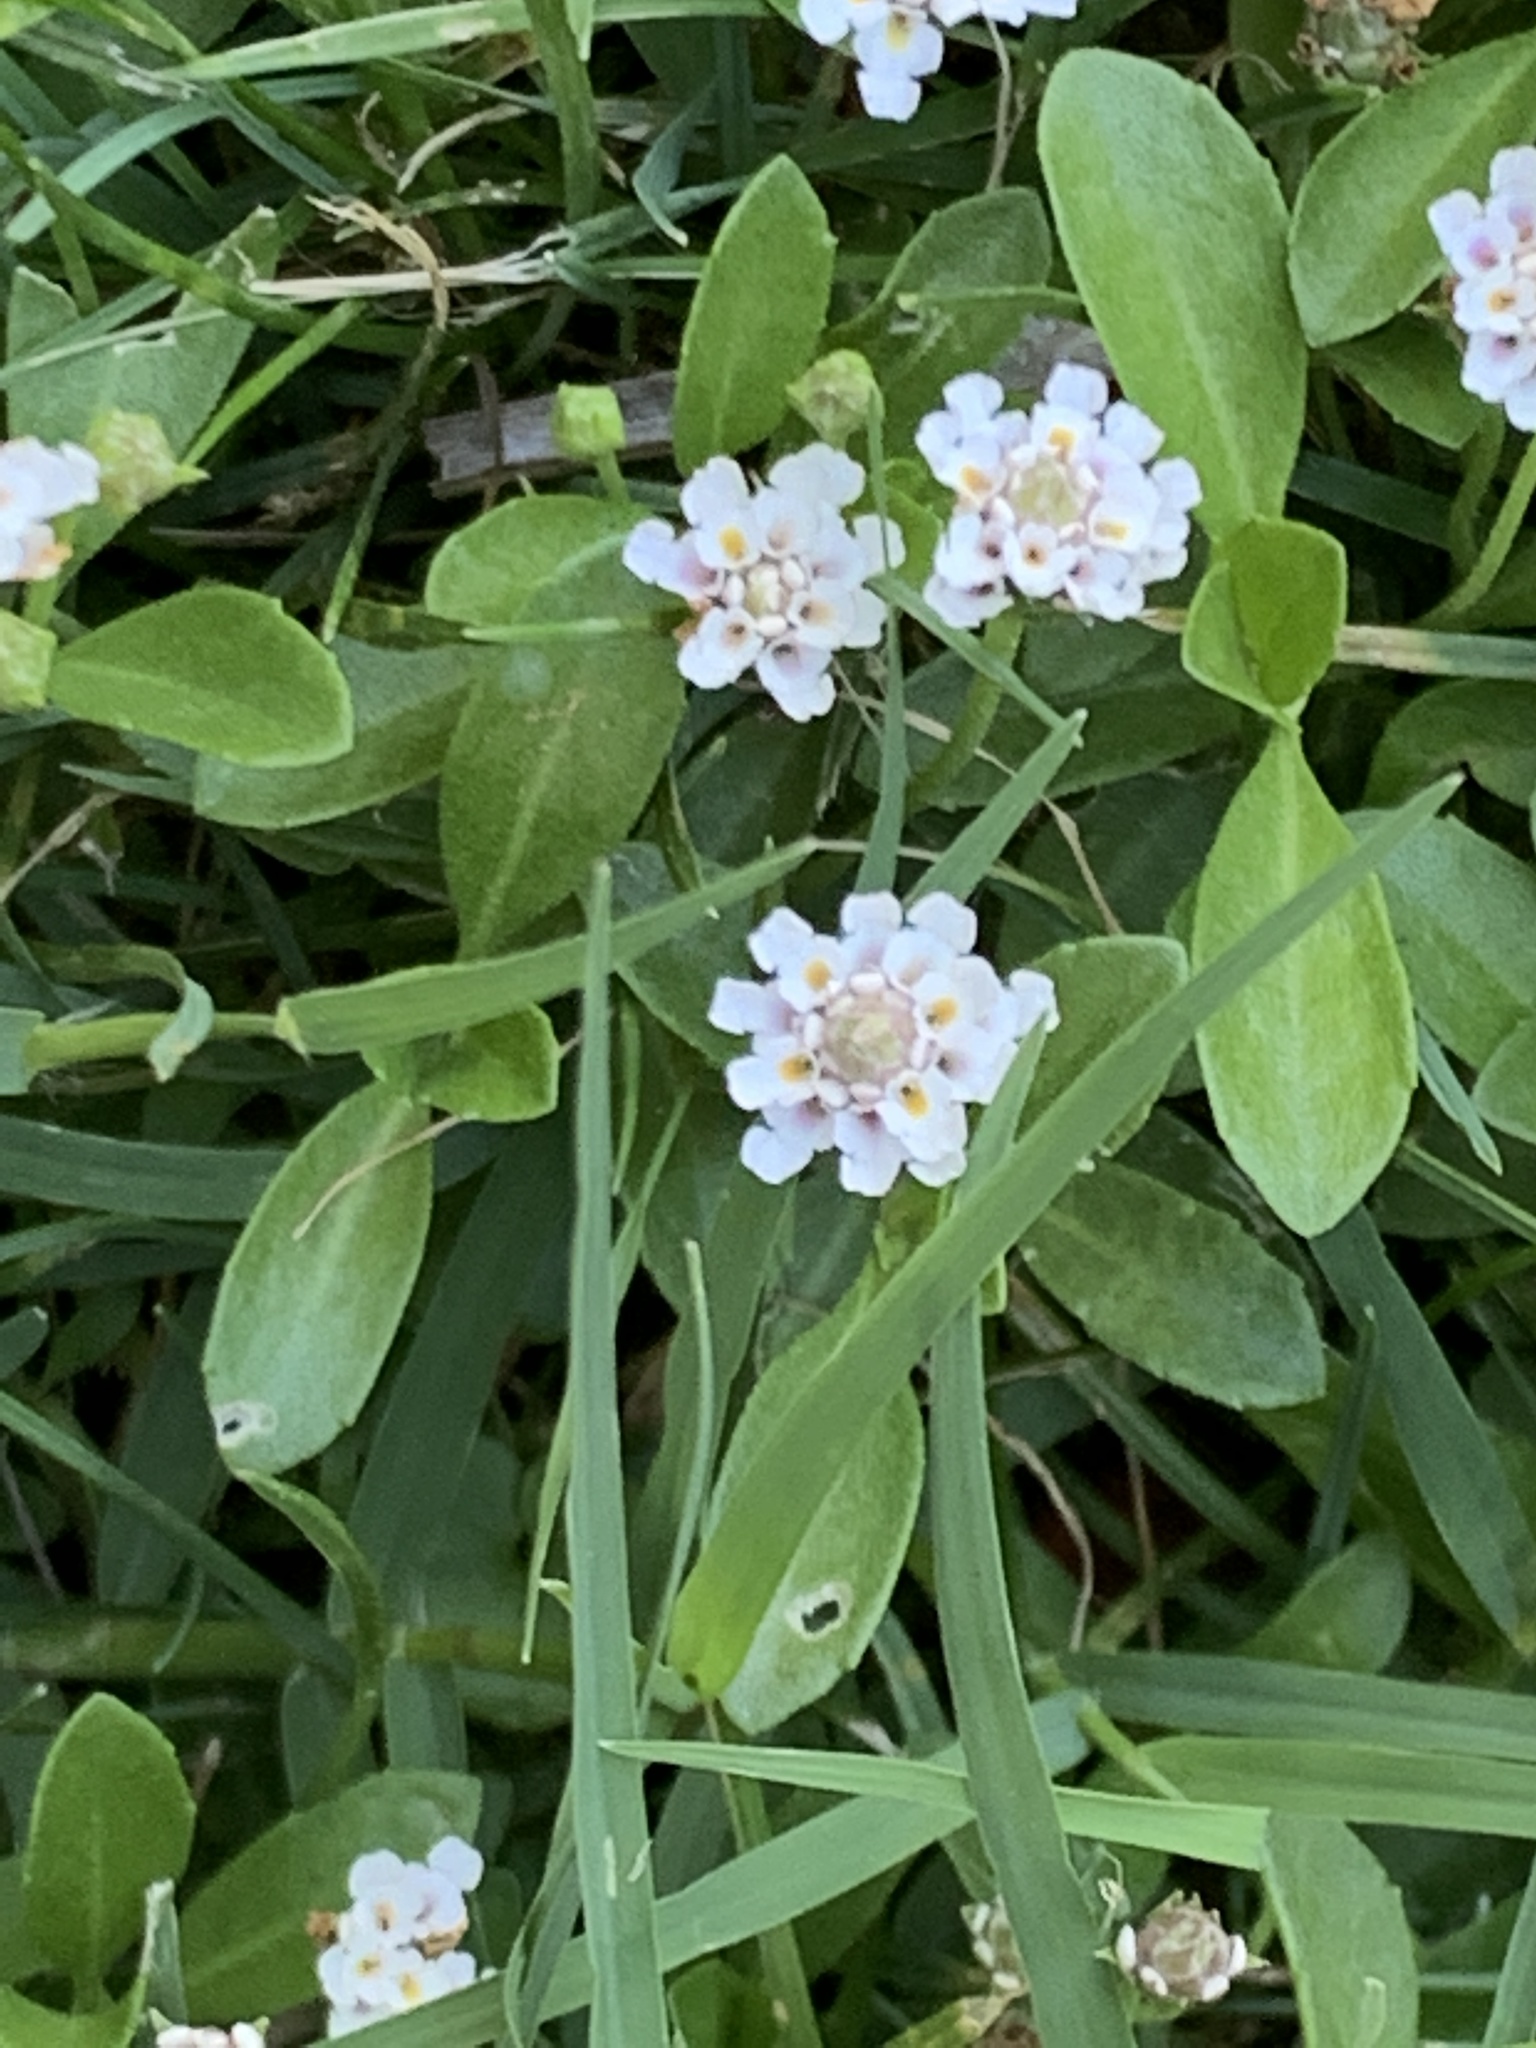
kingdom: Plantae
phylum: Tracheophyta
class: Magnoliopsida
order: Lamiales
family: Verbenaceae
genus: Phyla
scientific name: Phyla nodiflora
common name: Frogfruit
